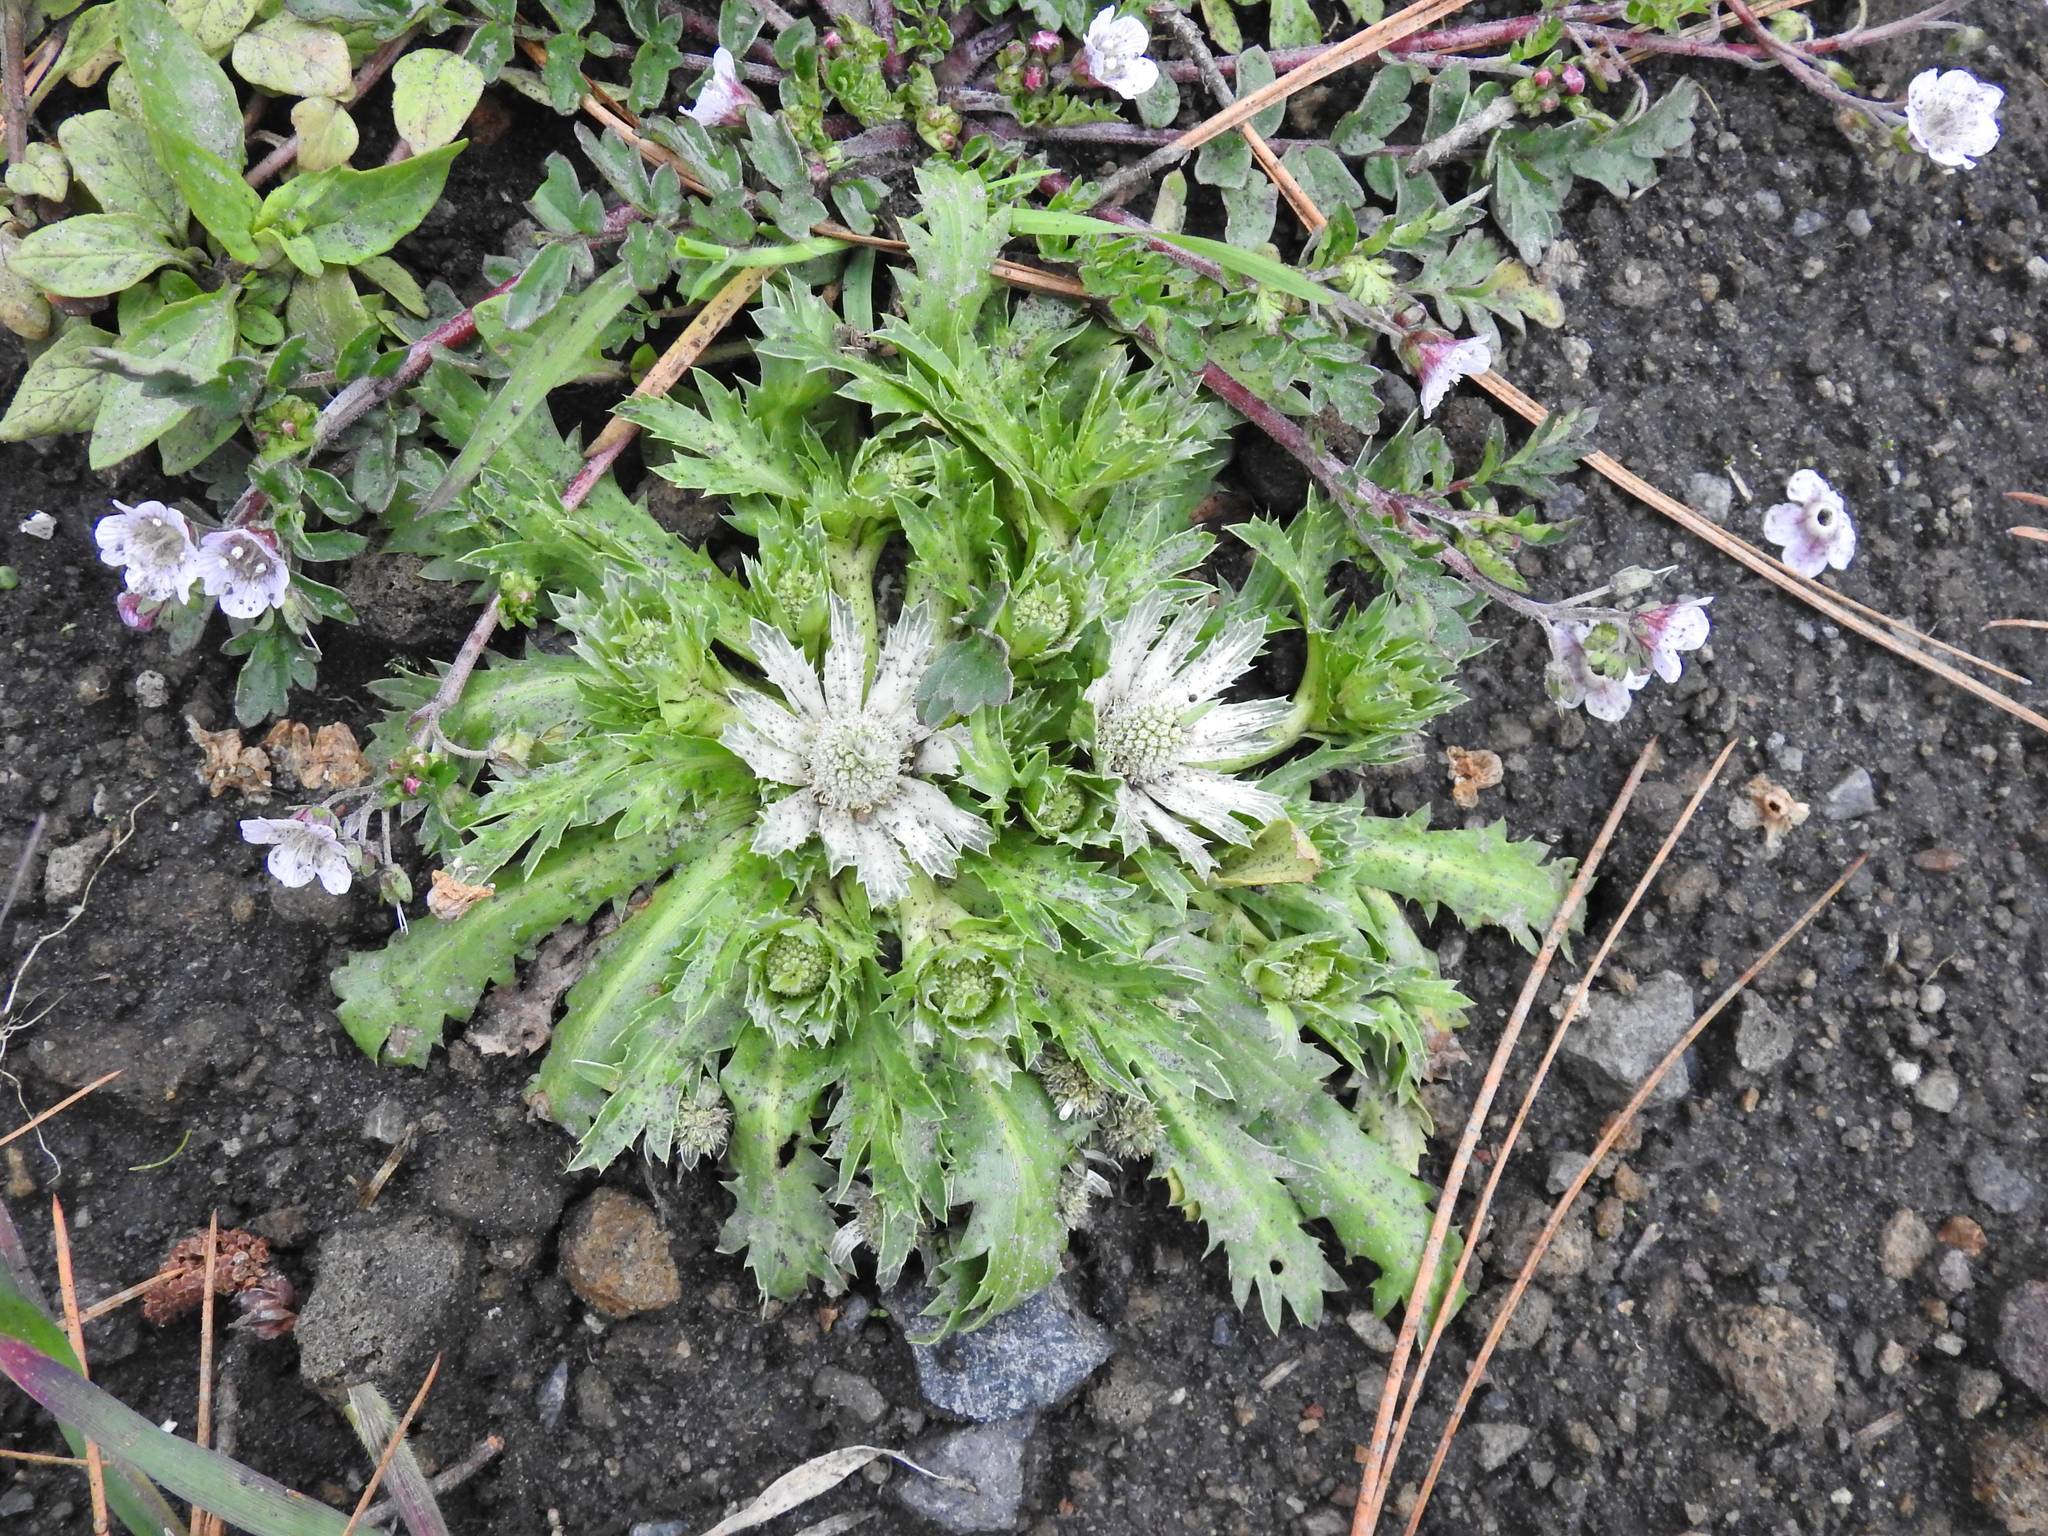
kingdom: Plantae
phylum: Tracheophyta
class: Magnoliopsida
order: Apiales
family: Apiaceae
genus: Eryngium
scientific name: Eryngium carlinae
